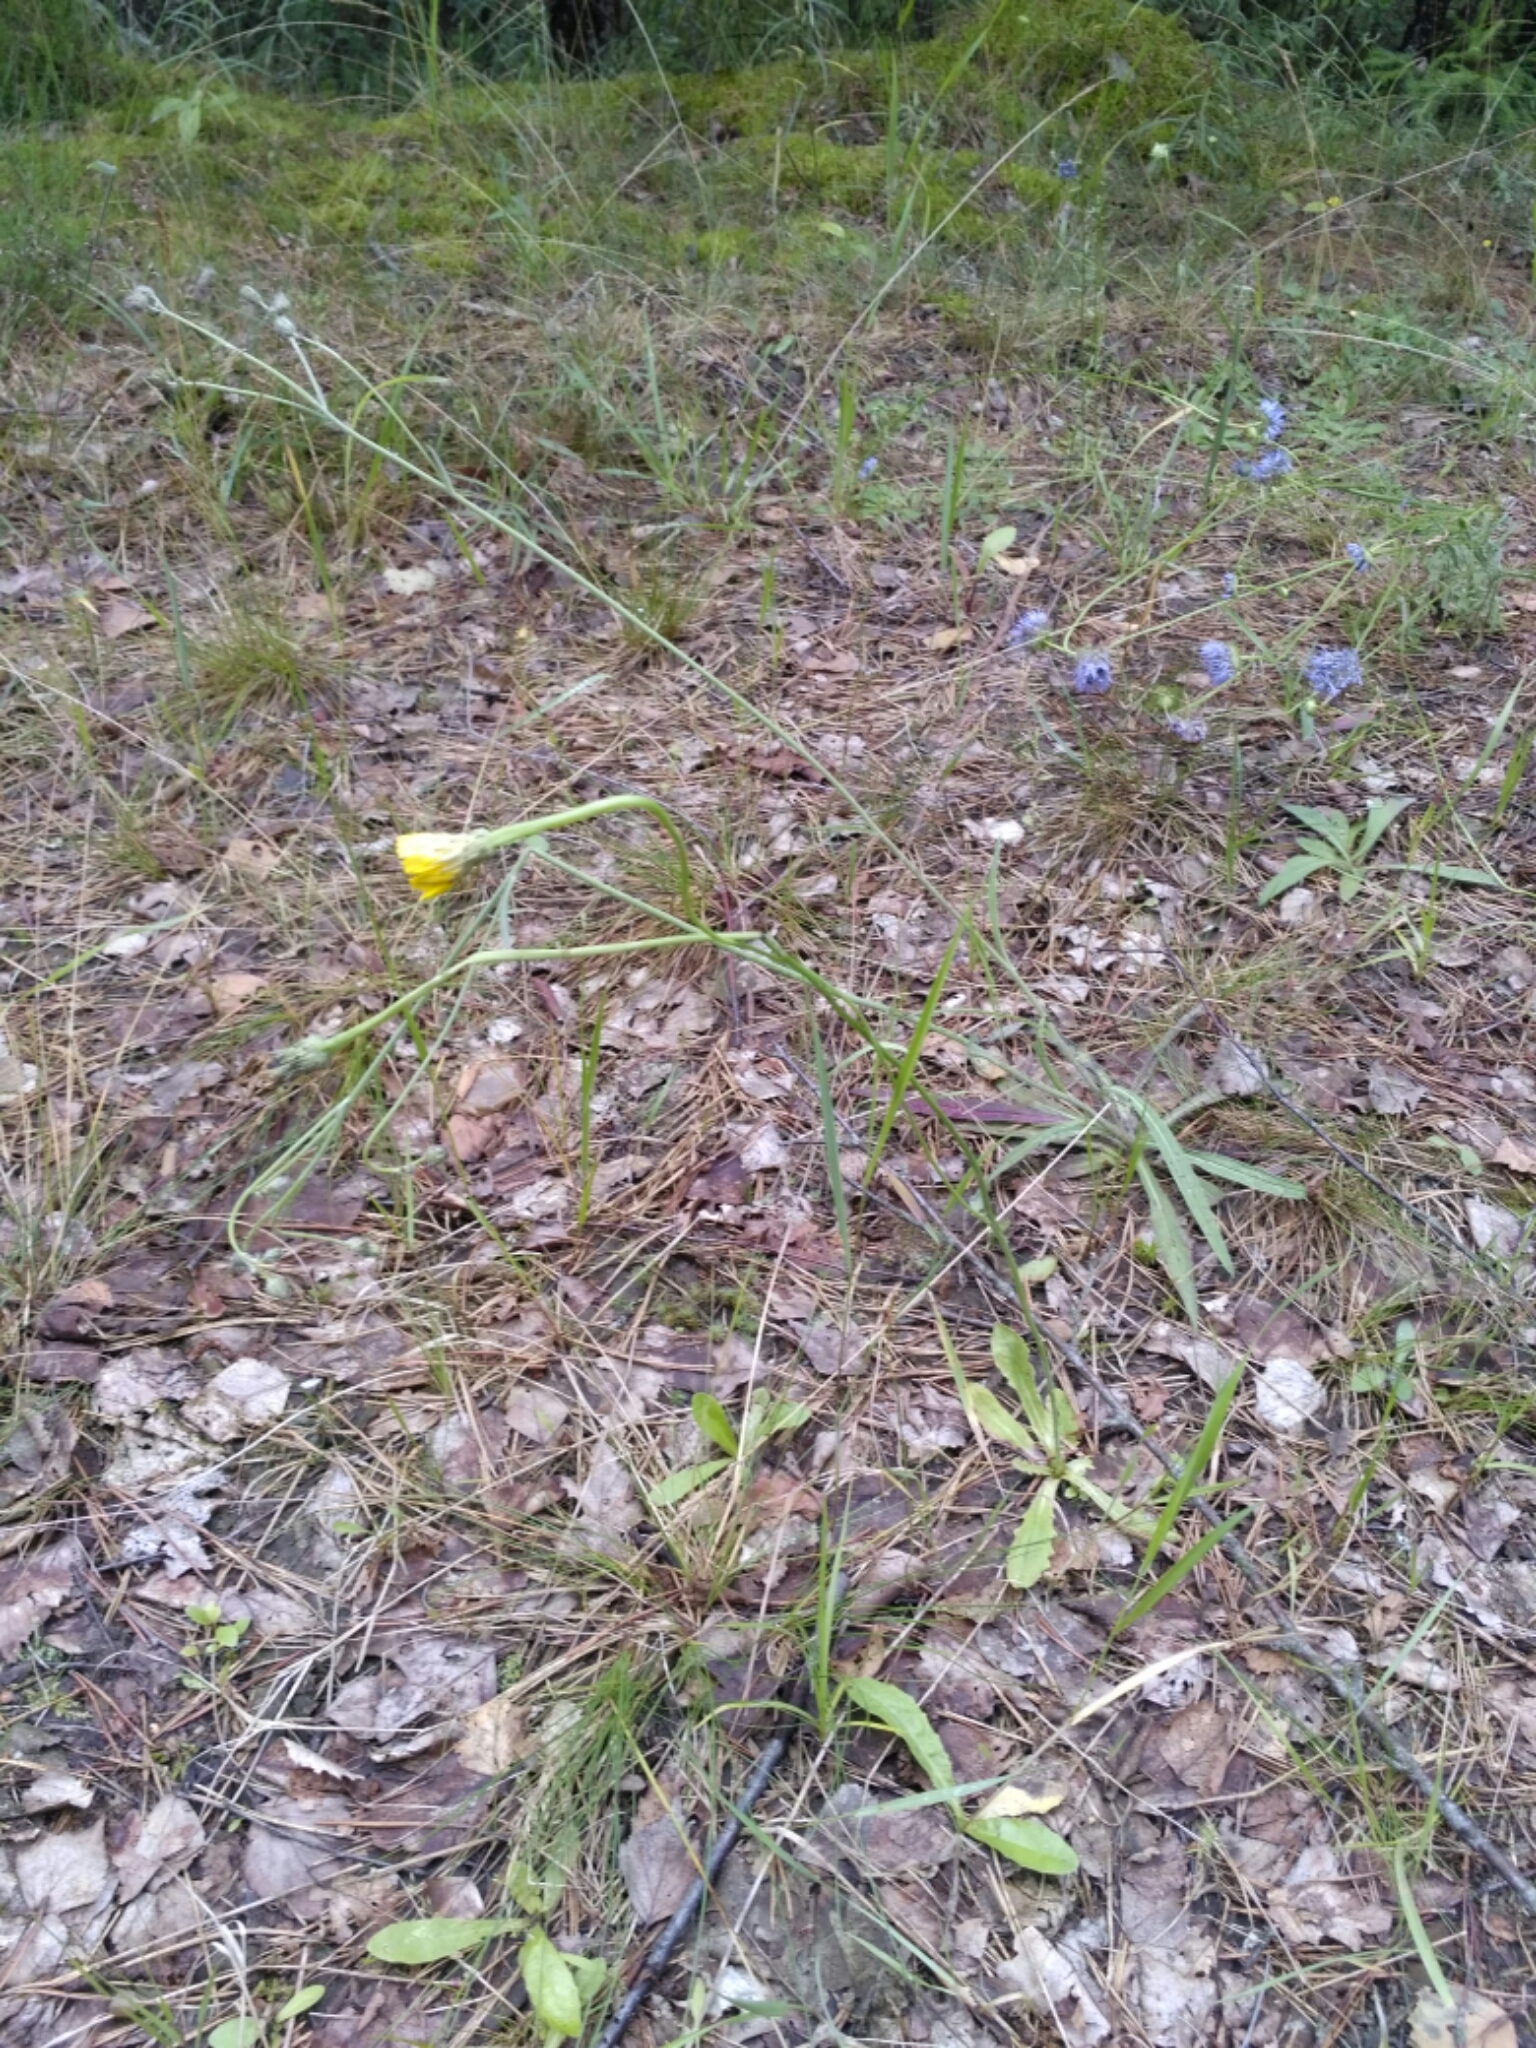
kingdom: Plantae
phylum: Tracheophyta
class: Magnoliopsida
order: Asterales
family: Asteraceae
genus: Hypochaeris
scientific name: Hypochaeris radicata
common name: Flatweed
